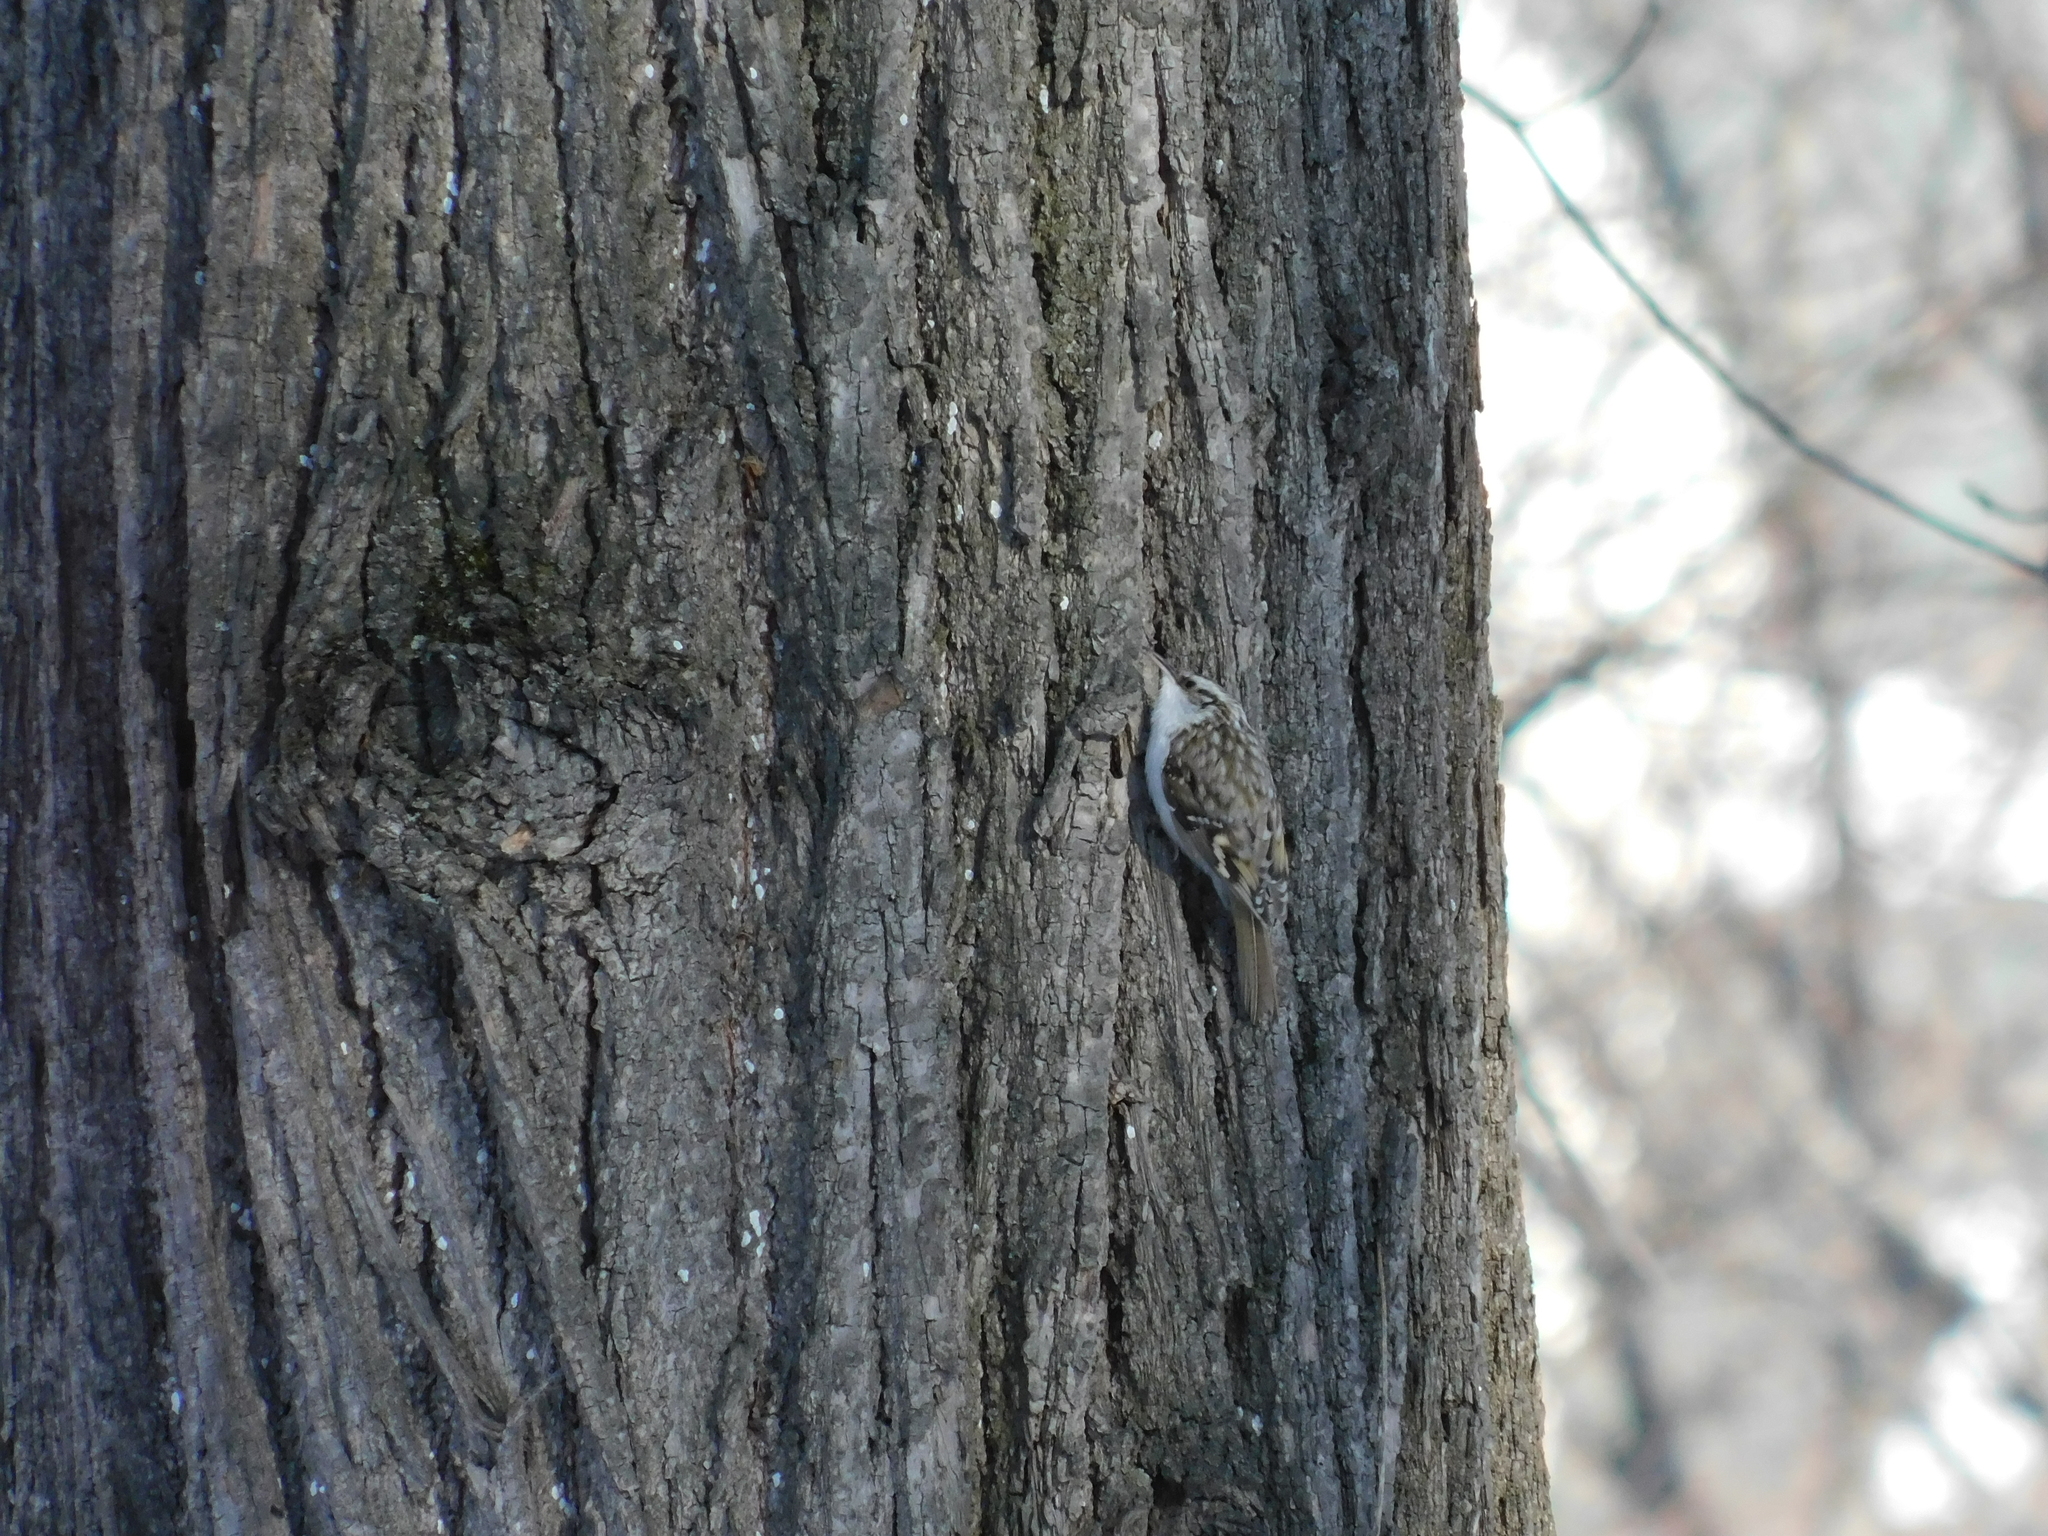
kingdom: Animalia
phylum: Chordata
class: Aves
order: Passeriformes
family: Certhiidae
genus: Certhia
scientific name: Certhia familiaris
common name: Eurasian treecreeper
